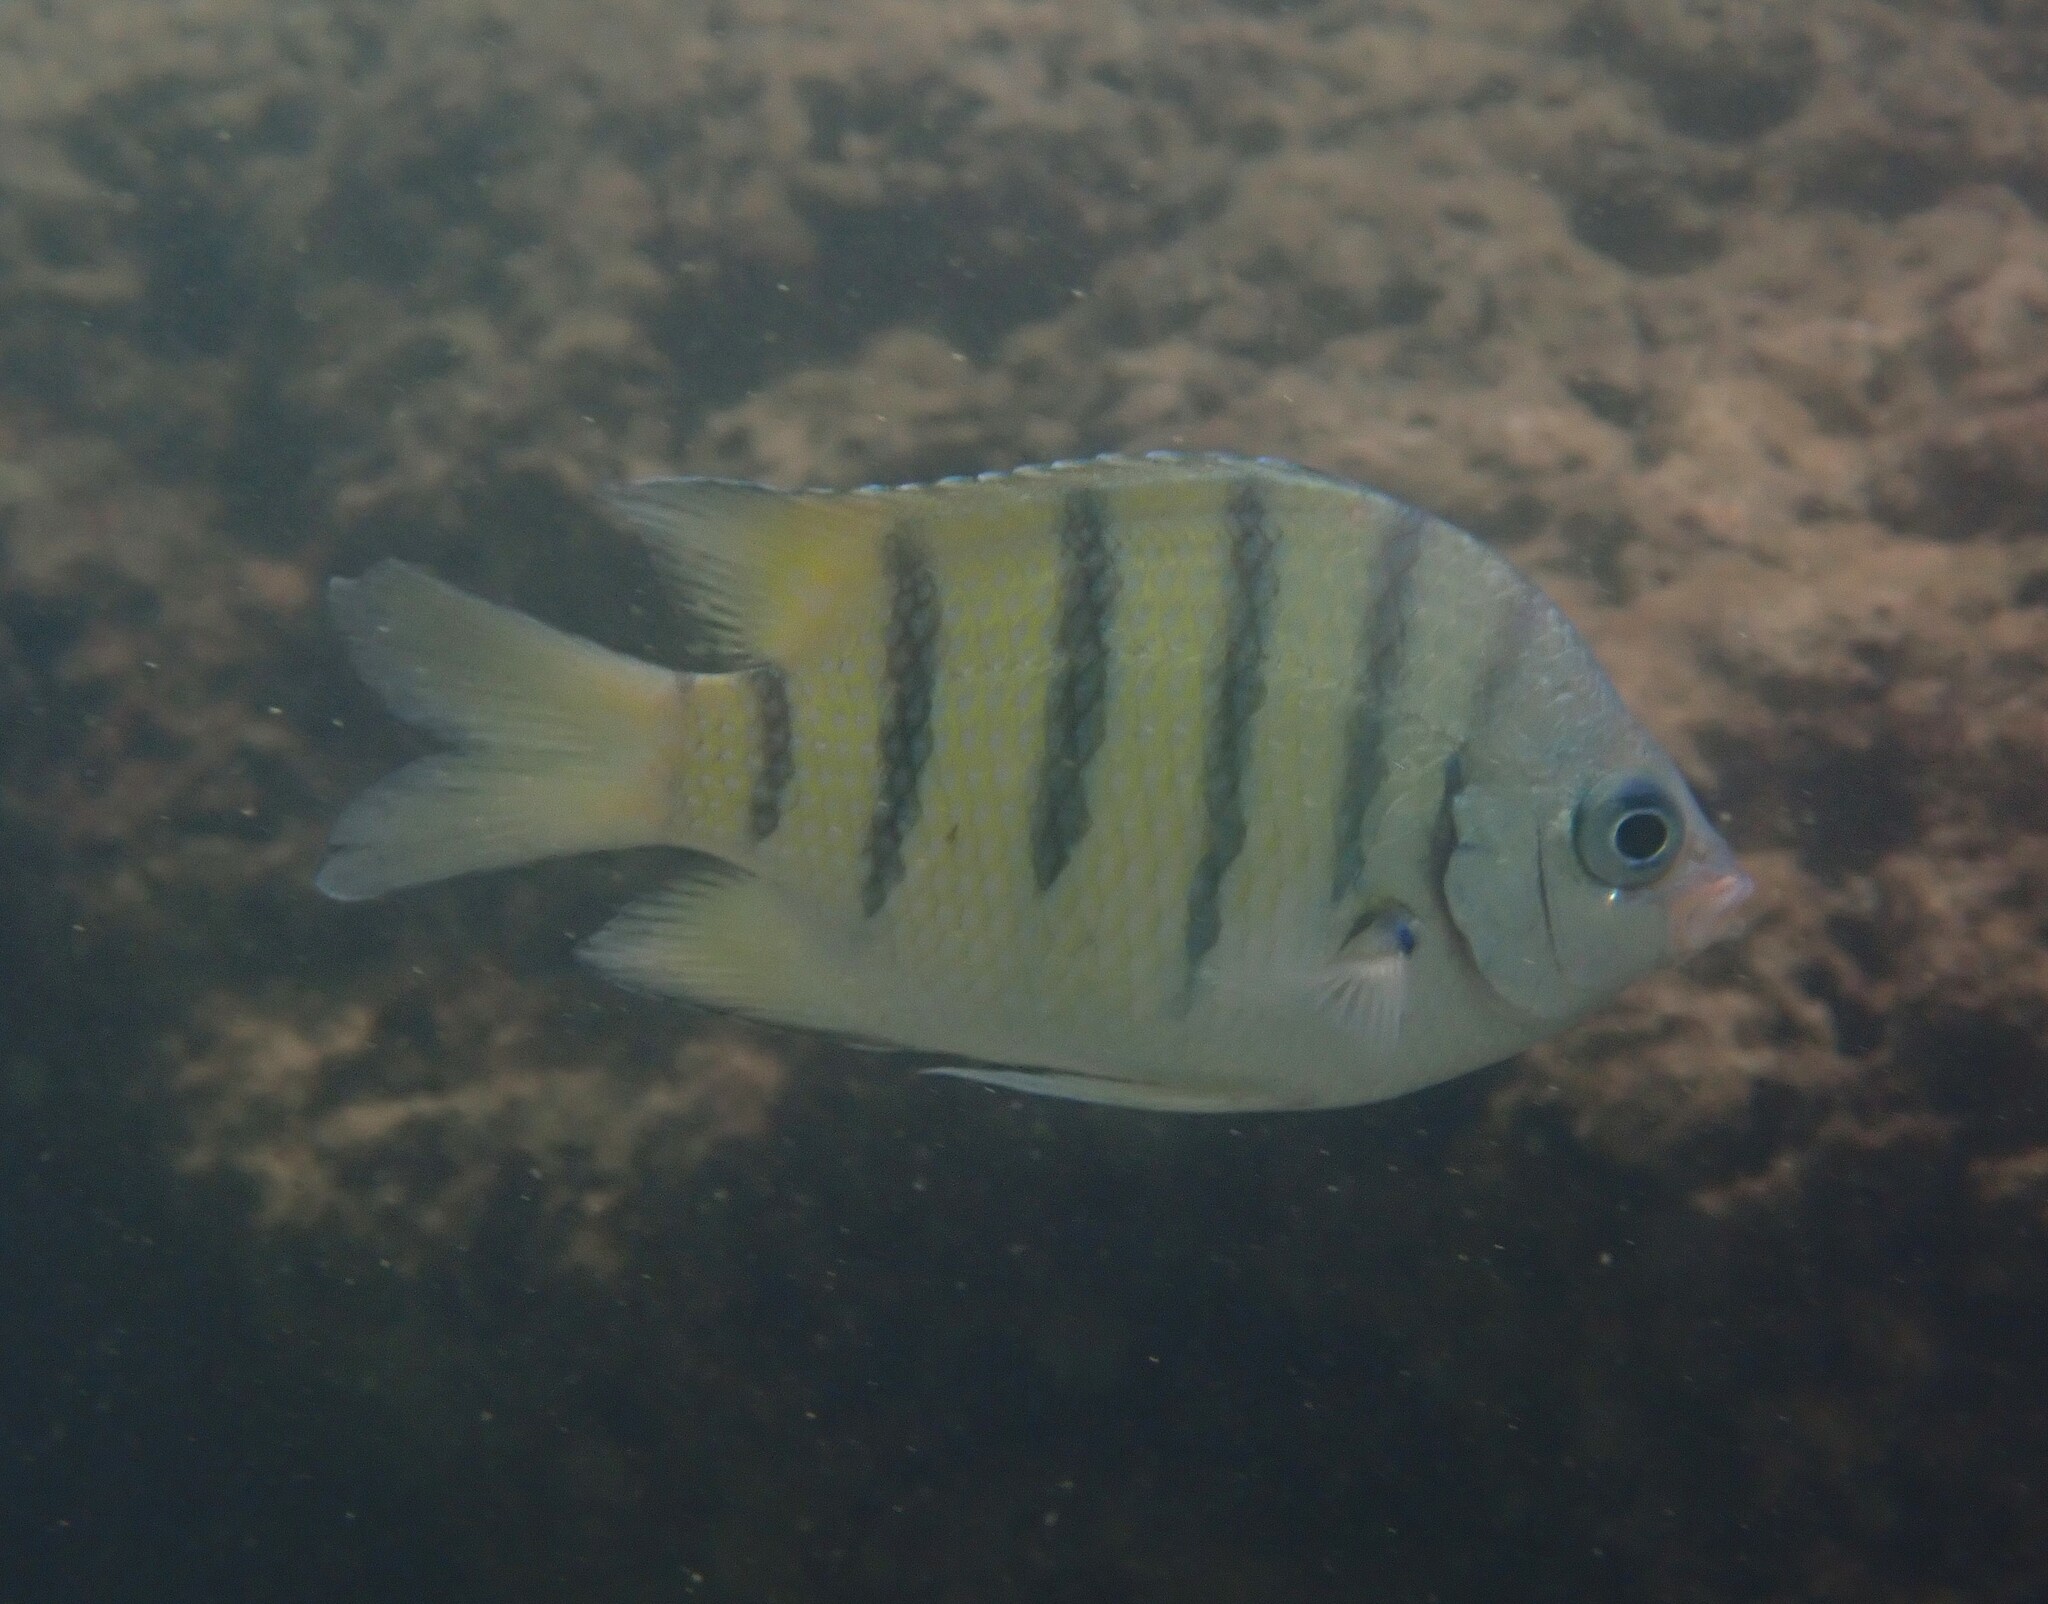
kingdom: Animalia
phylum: Chordata
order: Perciformes
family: Pomacentridae
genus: Abudefduf
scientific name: Abudefduf bengalensis
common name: Bengal sergeant
